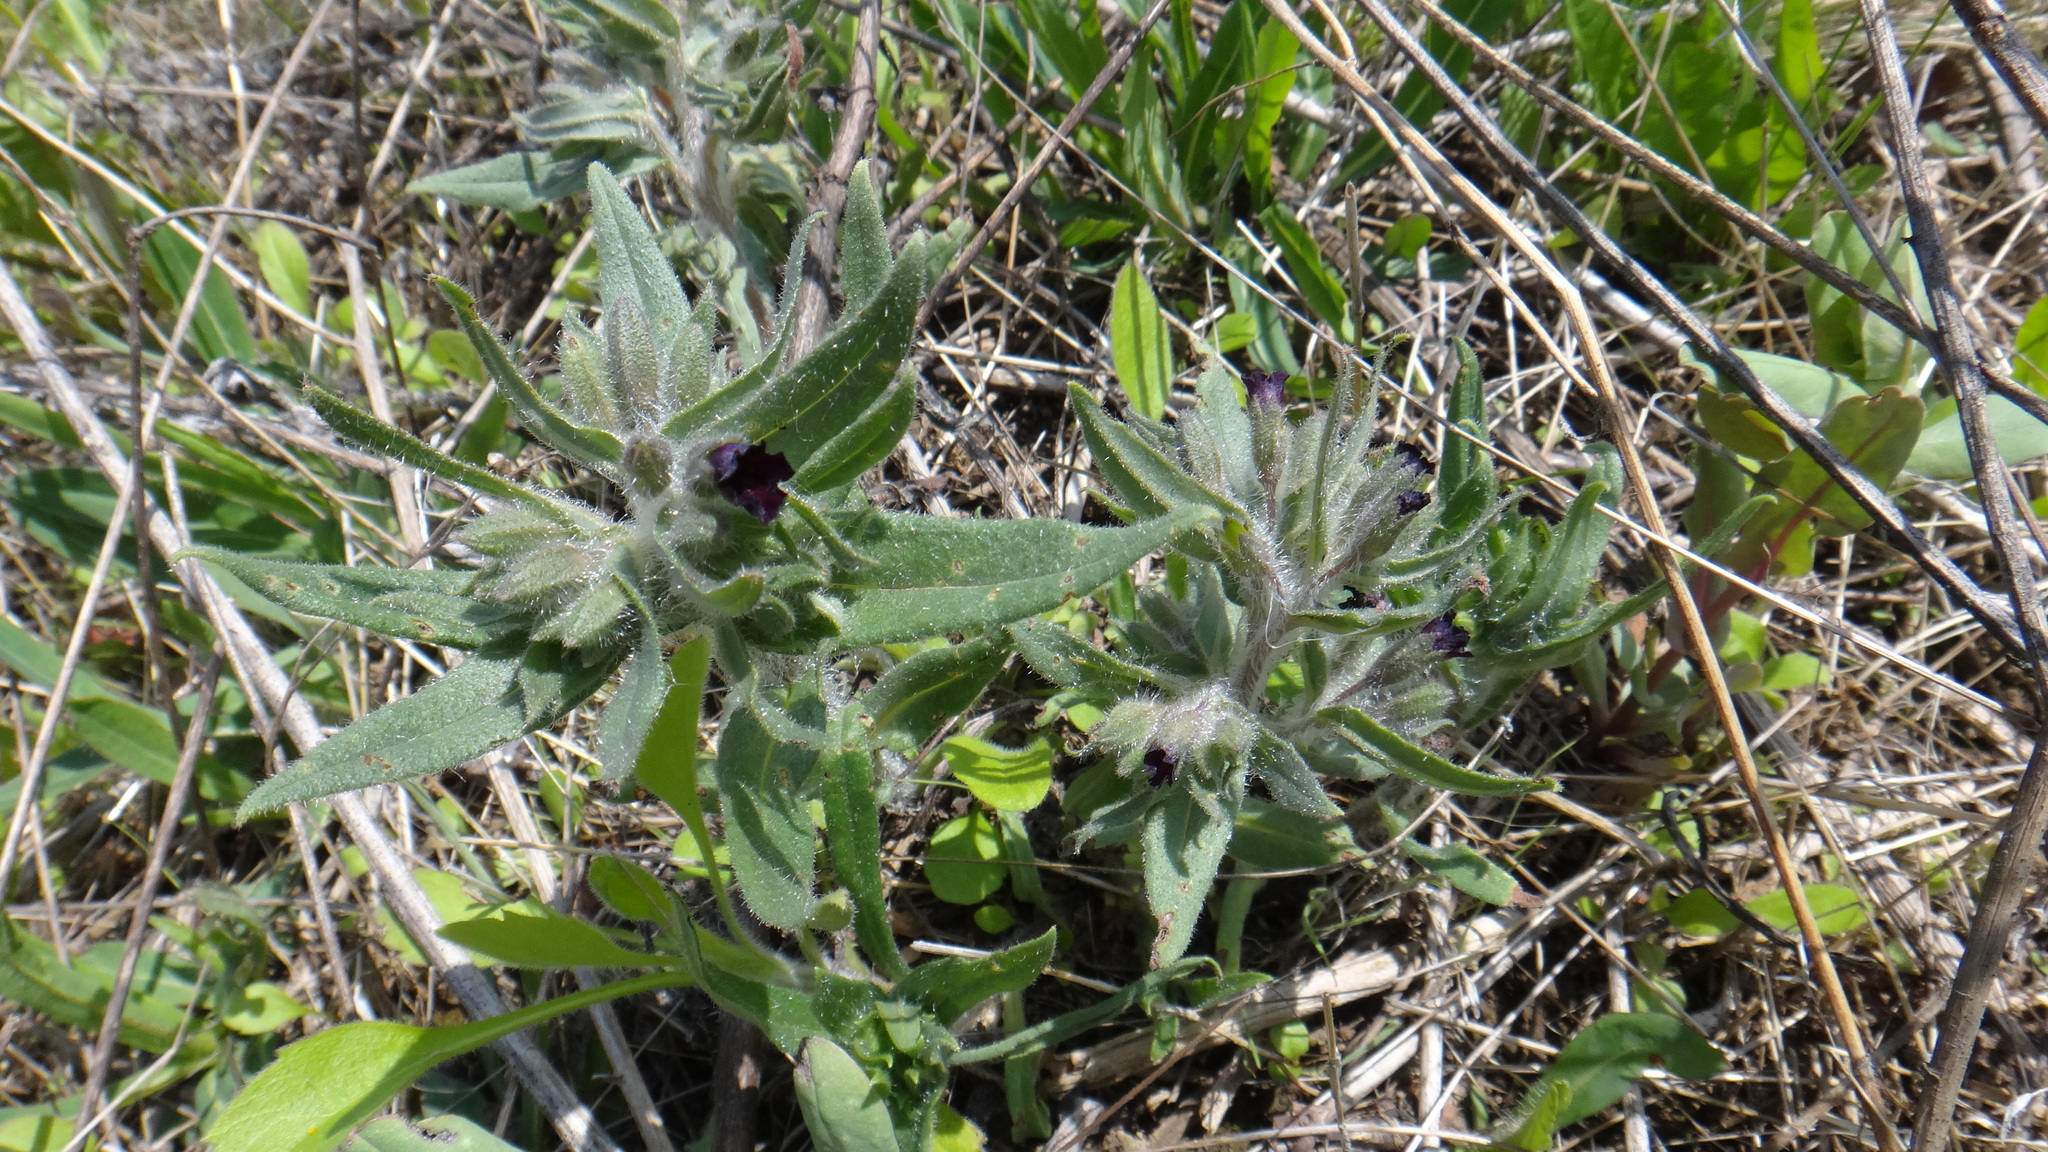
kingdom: Plantae
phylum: Tracheophyta
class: Magnoliopsida
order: Boraginales
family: Boraginaceae
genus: Nonea
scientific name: Nonea pulla
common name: Brown nonea
